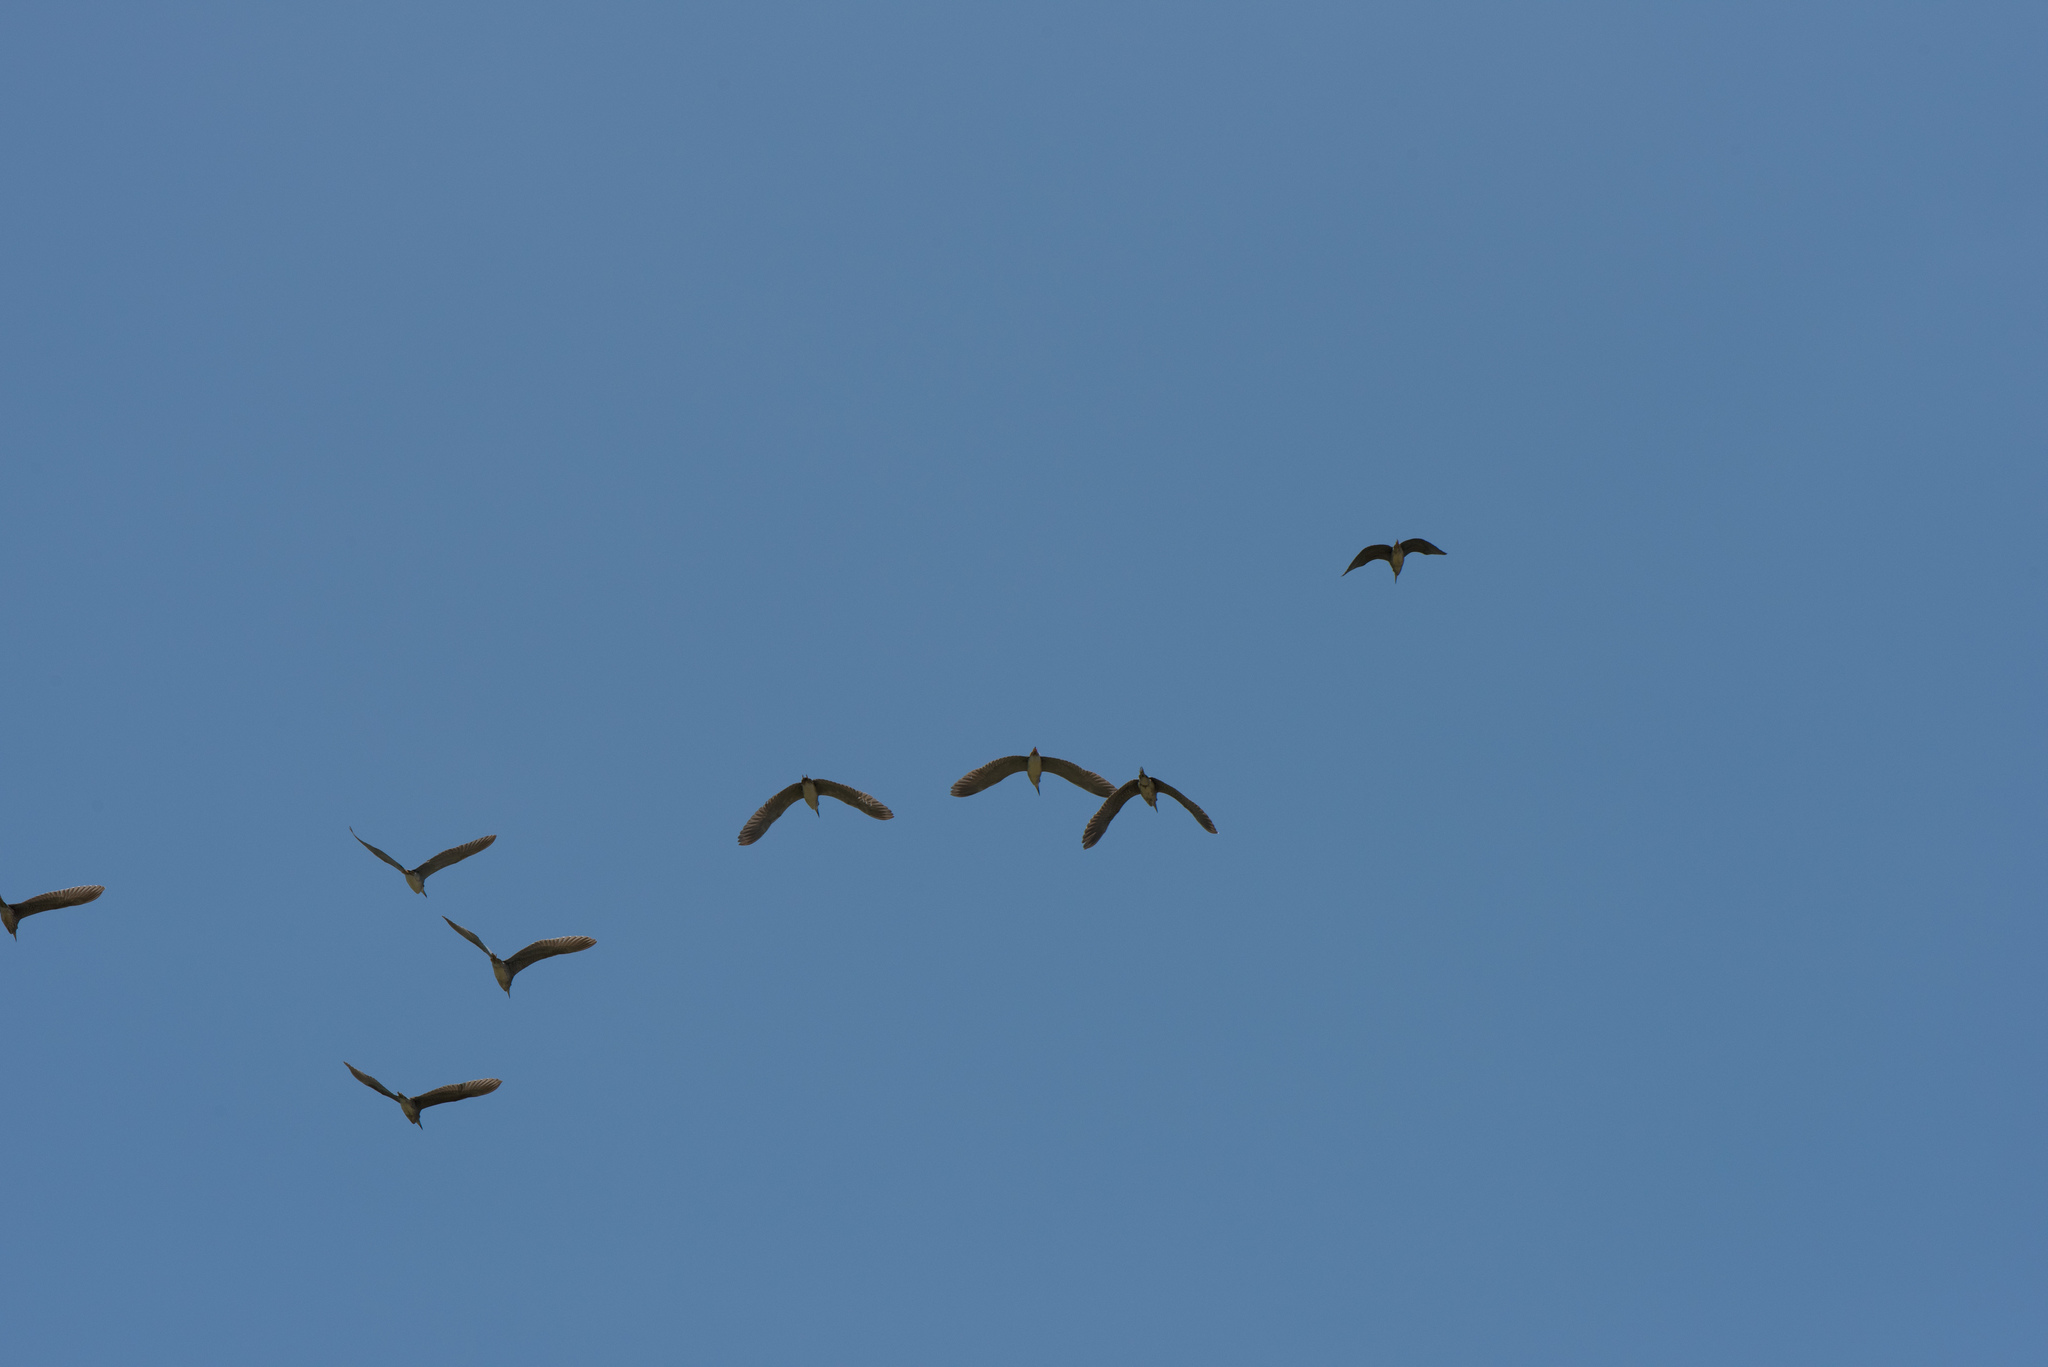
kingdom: Animalia
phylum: Chordata
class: Aves
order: Pelecaniformes
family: Ardeidae
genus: Nycticorax
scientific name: Nycticorax nycticorax
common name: Black-crowned night heron
